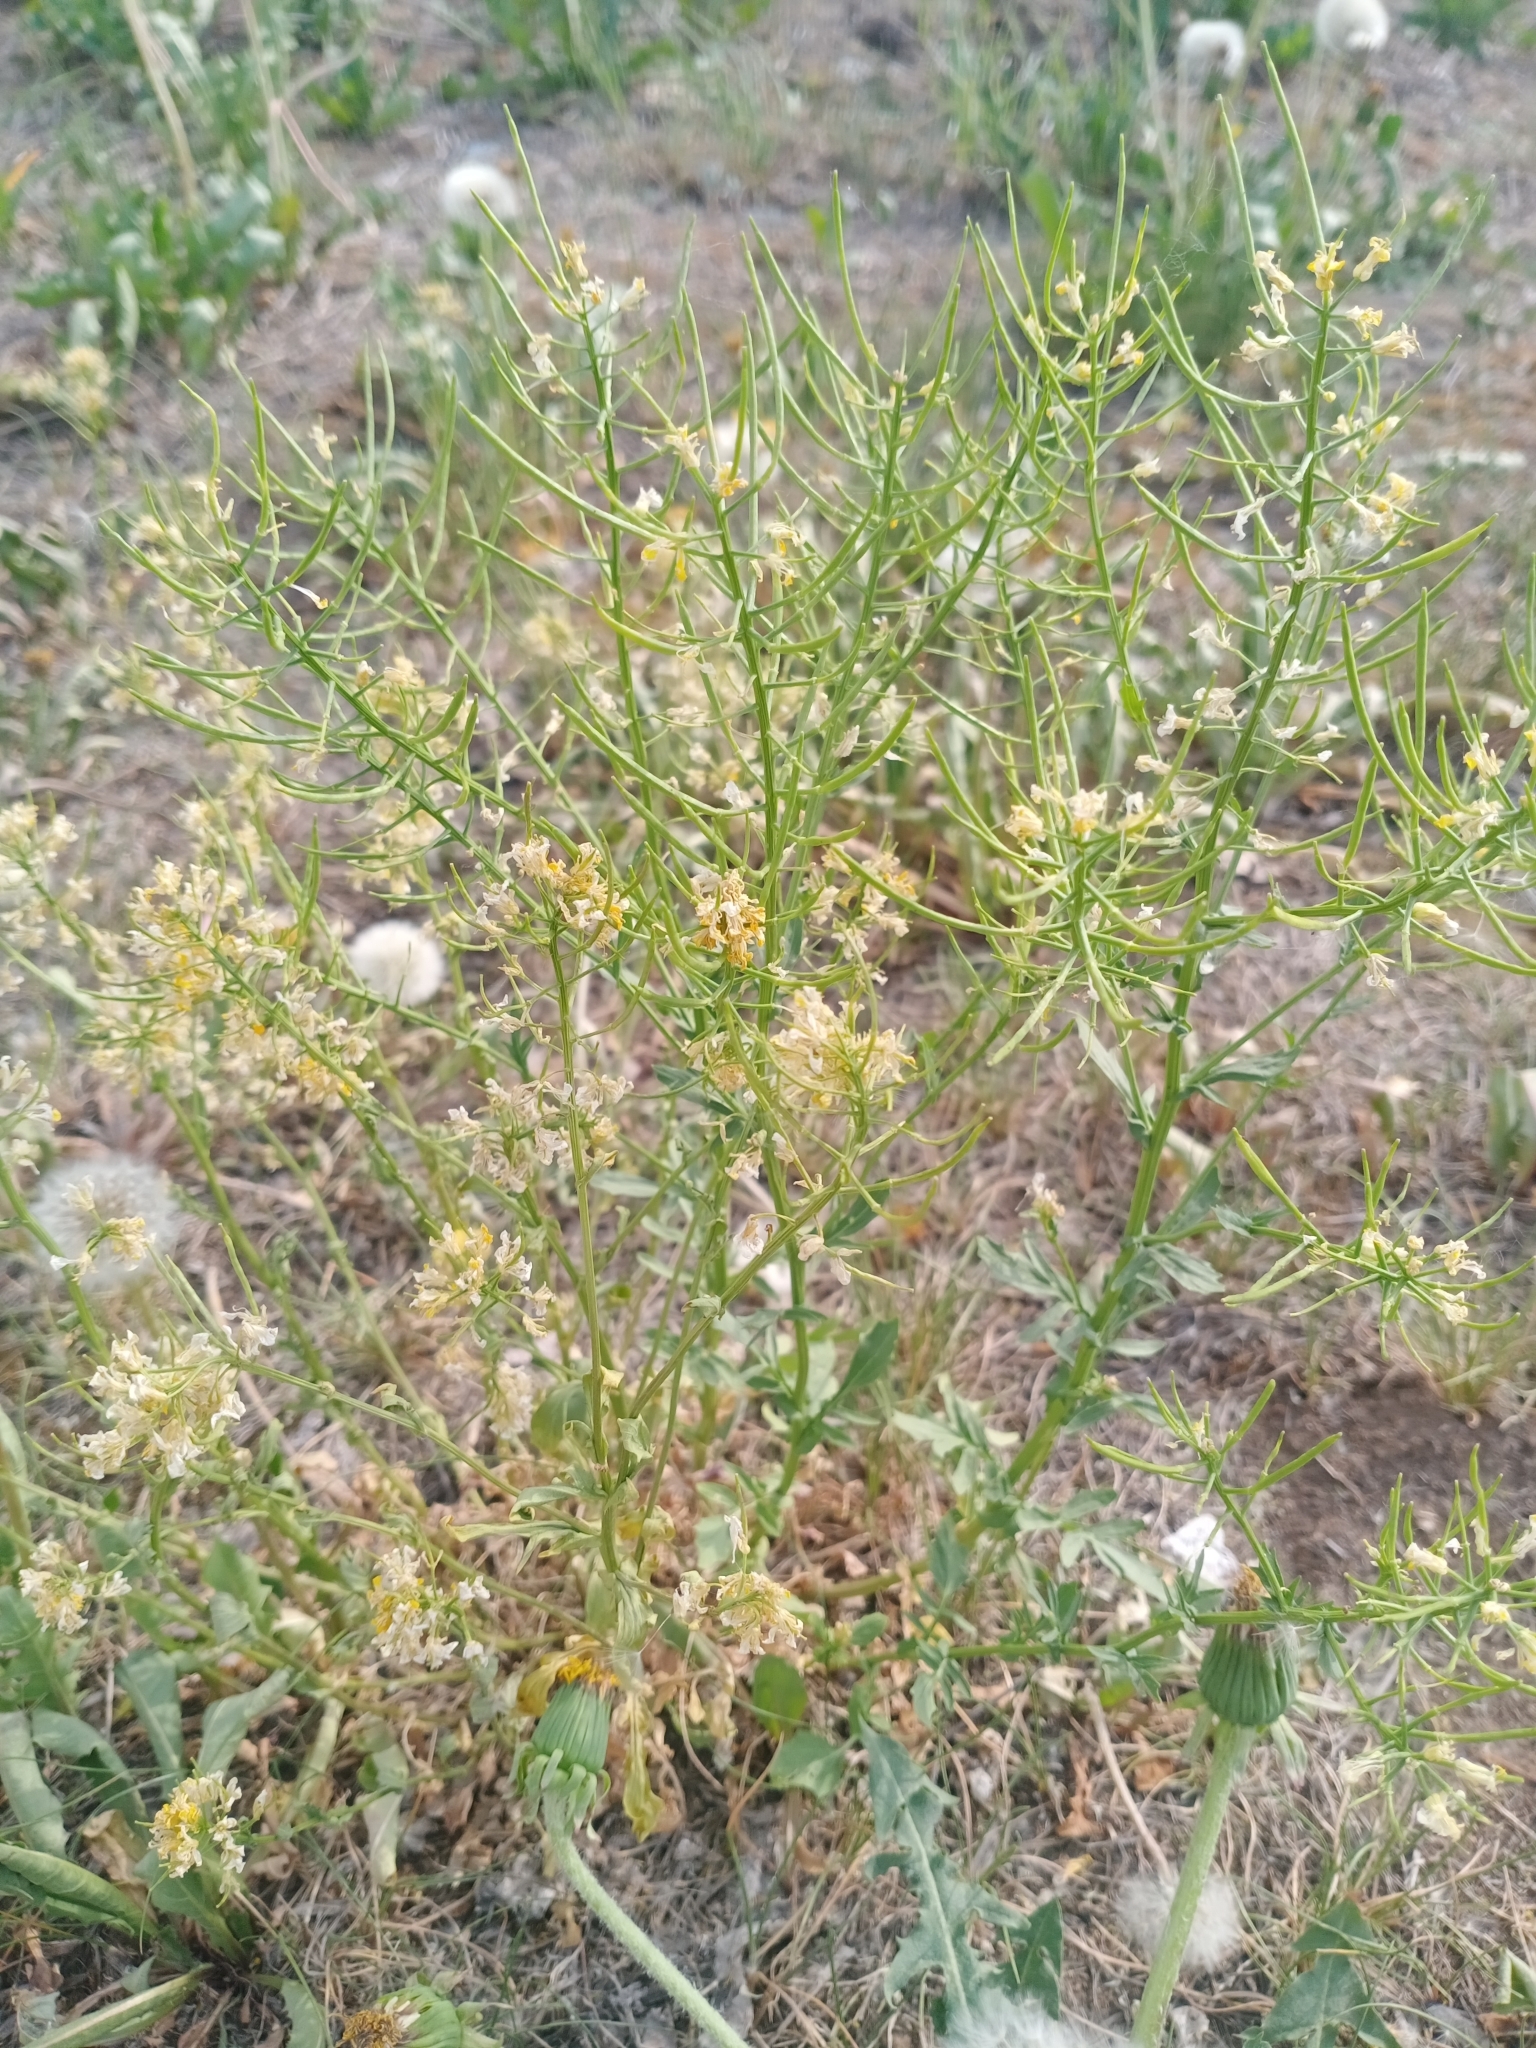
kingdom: Plantae
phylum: Tracheophyta
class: Magnoliopsida
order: Brassicales
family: Brassicaceae
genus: Barbarea
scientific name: Barbarea vulgaris
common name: Cressy-greens
